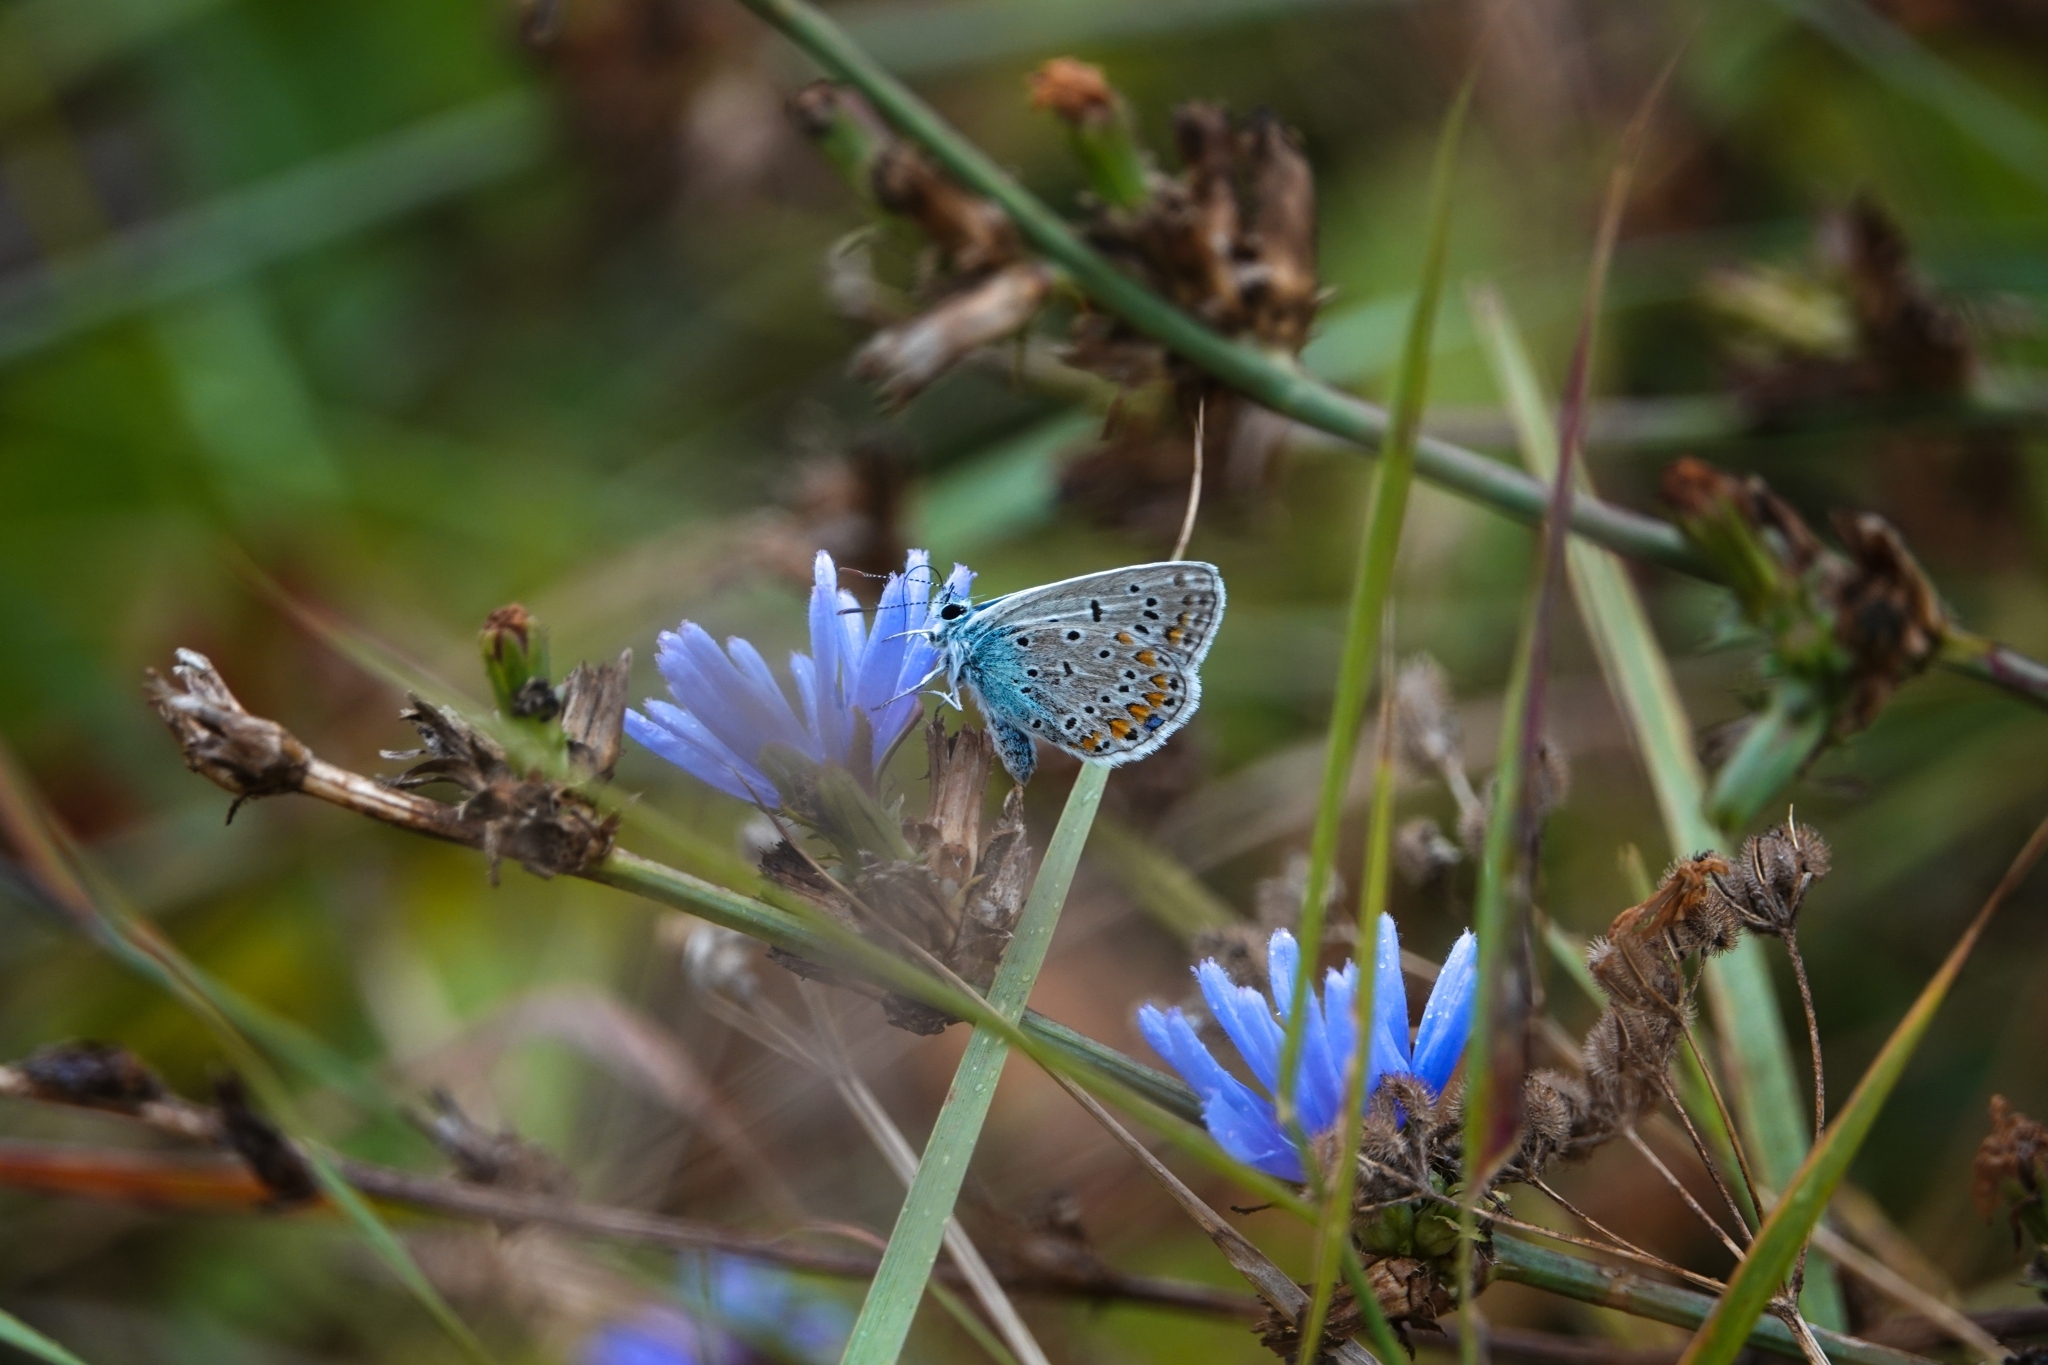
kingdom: Animalia
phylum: Arthropoda
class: Insecta
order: Lepidoptera
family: Lycaenidae
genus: Polyommatus
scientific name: Polyommatus icarus
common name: Common blue
